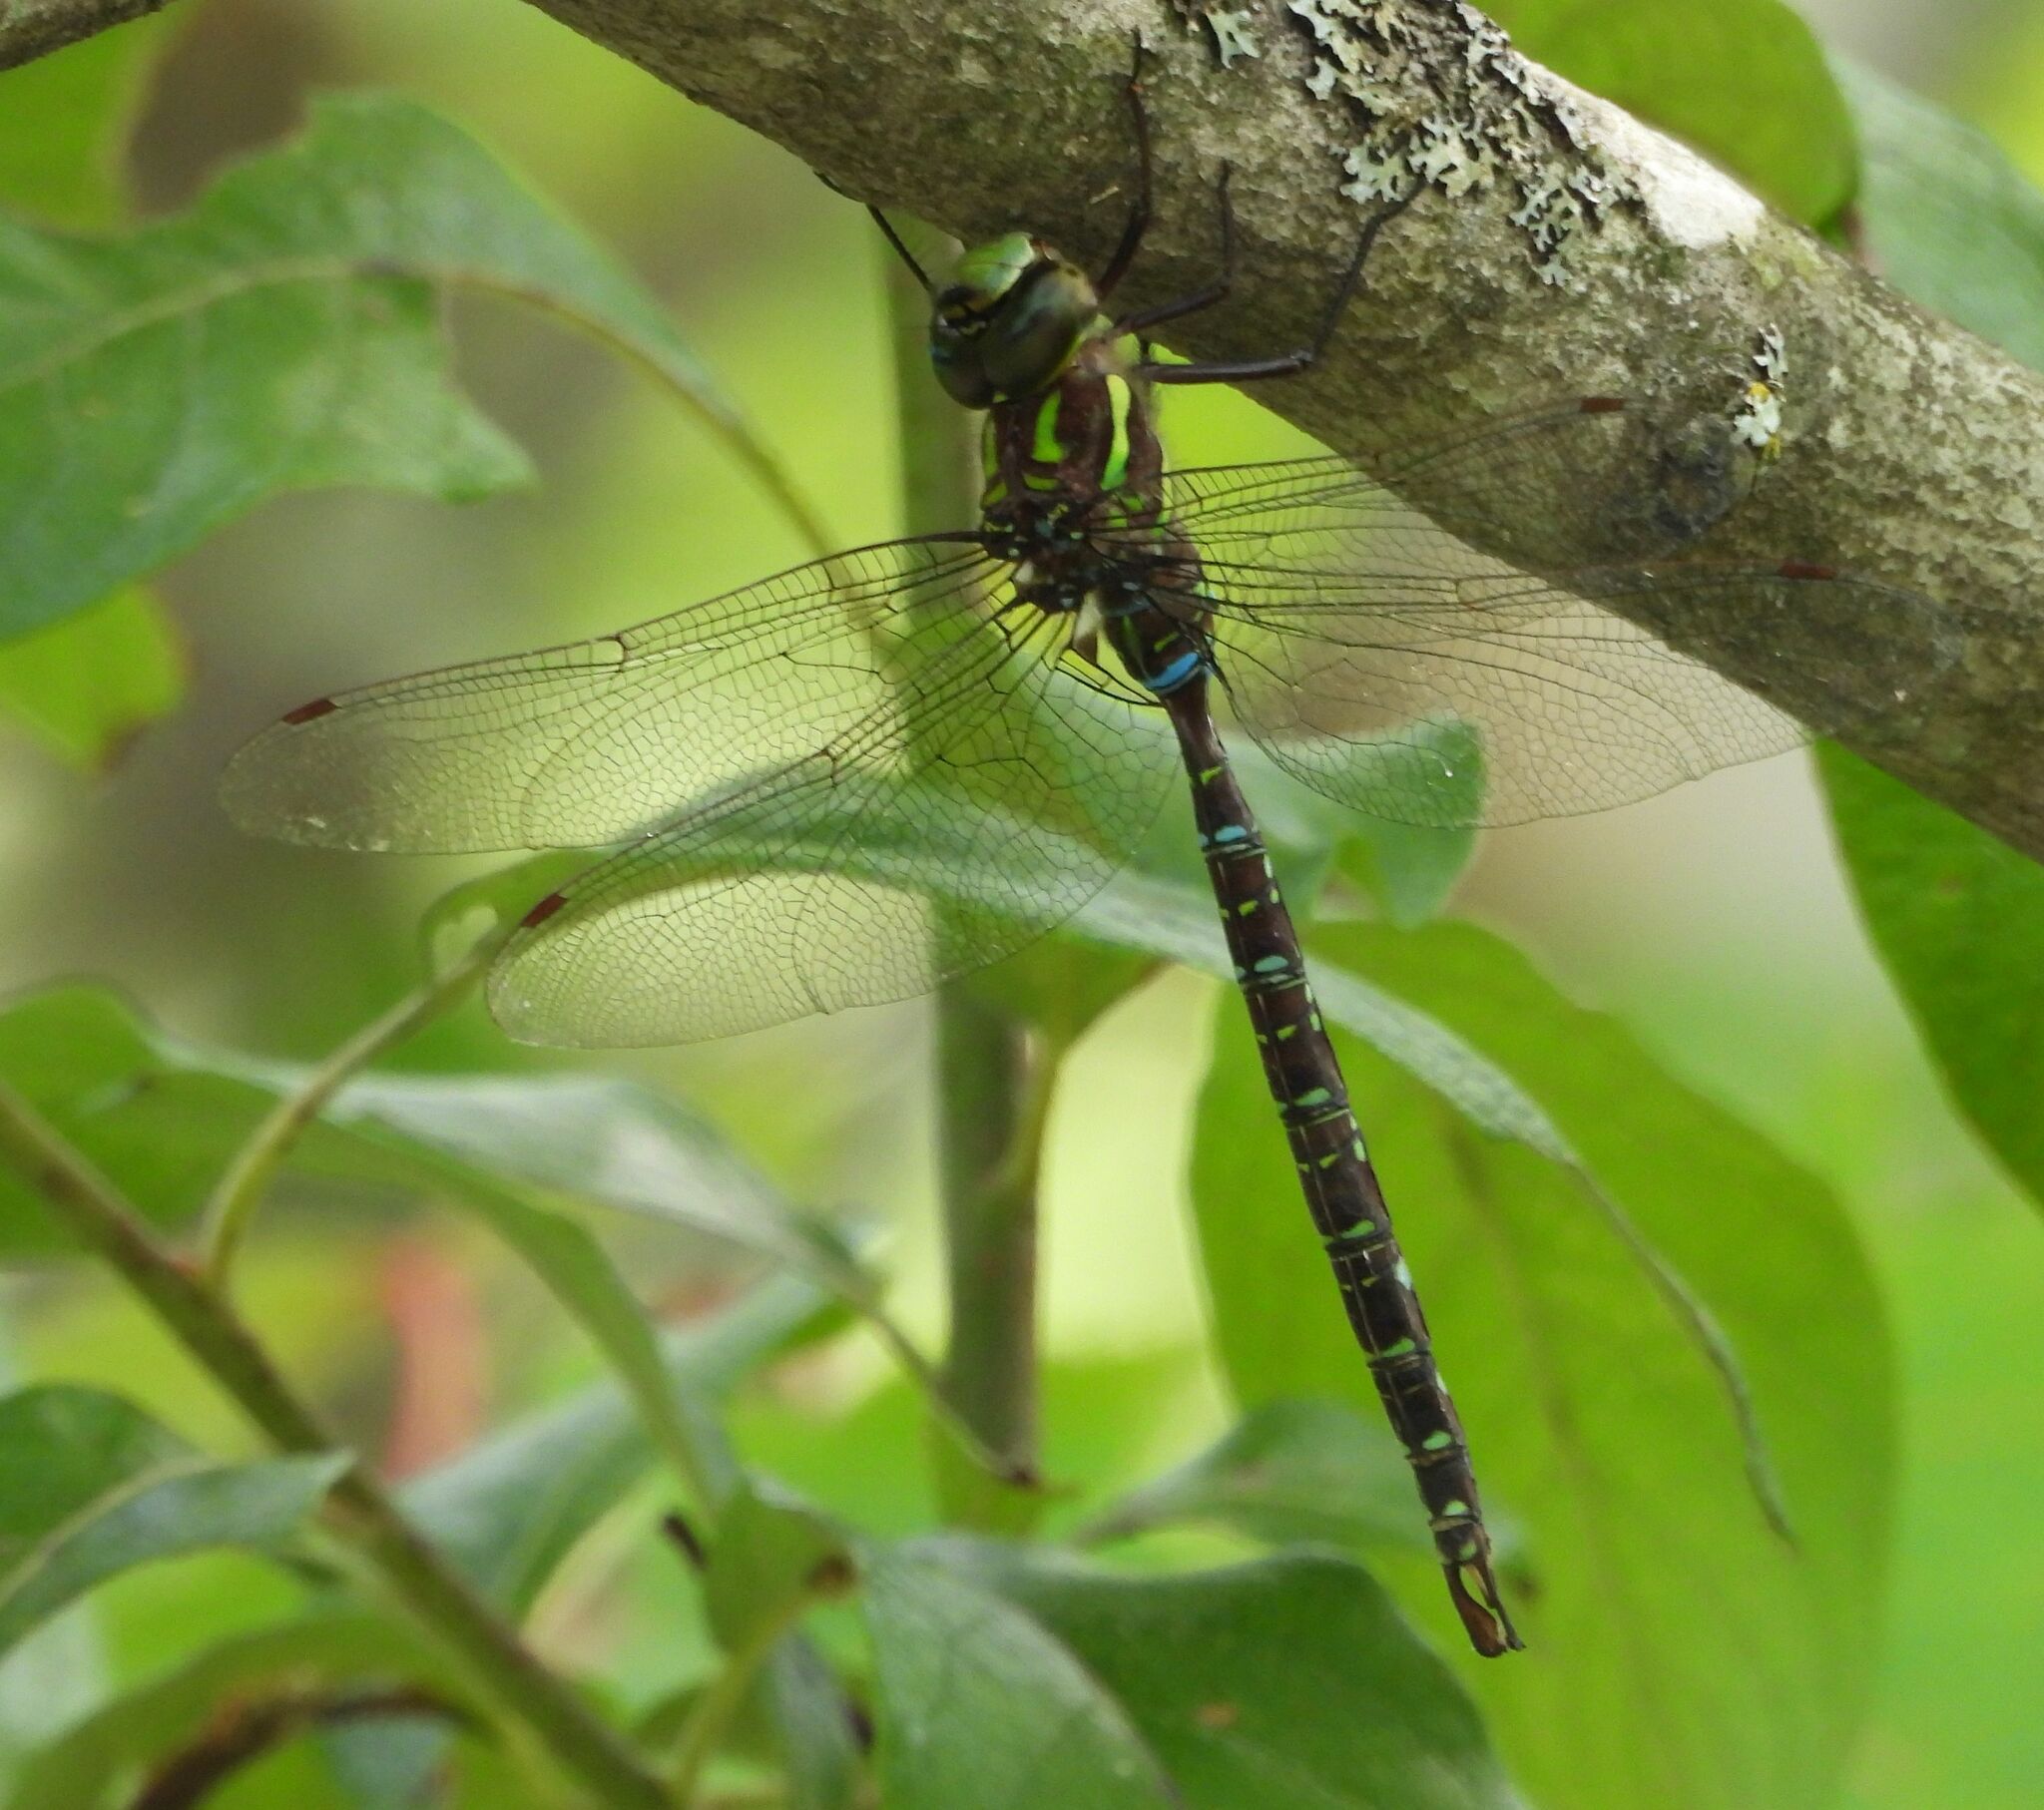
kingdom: Animalia
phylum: Arthropoda
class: Insecta
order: Odonata
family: Aeshnidae
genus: Aeshna
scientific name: Aeshna umbrosa
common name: Shadow darner
